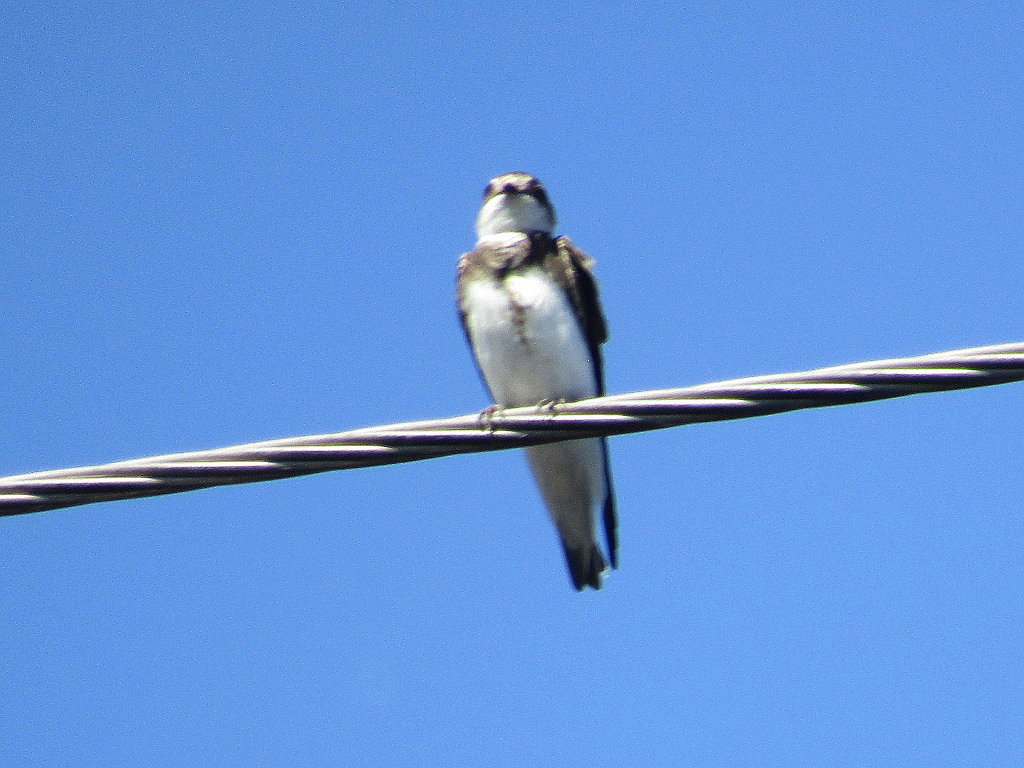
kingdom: Animalia
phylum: Chordata
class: Aves
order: Passeriformes
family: Hirundinidae
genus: Riparia
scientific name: Riparia riparia
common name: Sand martin
